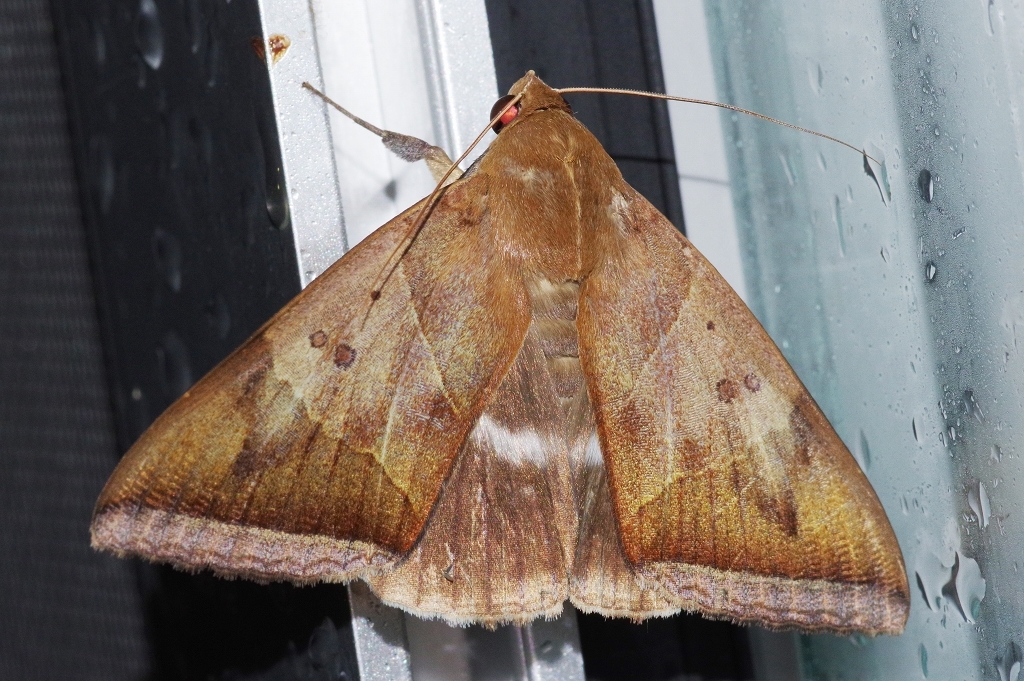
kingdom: Animalia
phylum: Arthropoda
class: Insecta
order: Lepidoptera
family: Erebidae
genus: Artena
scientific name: Artena dotata
